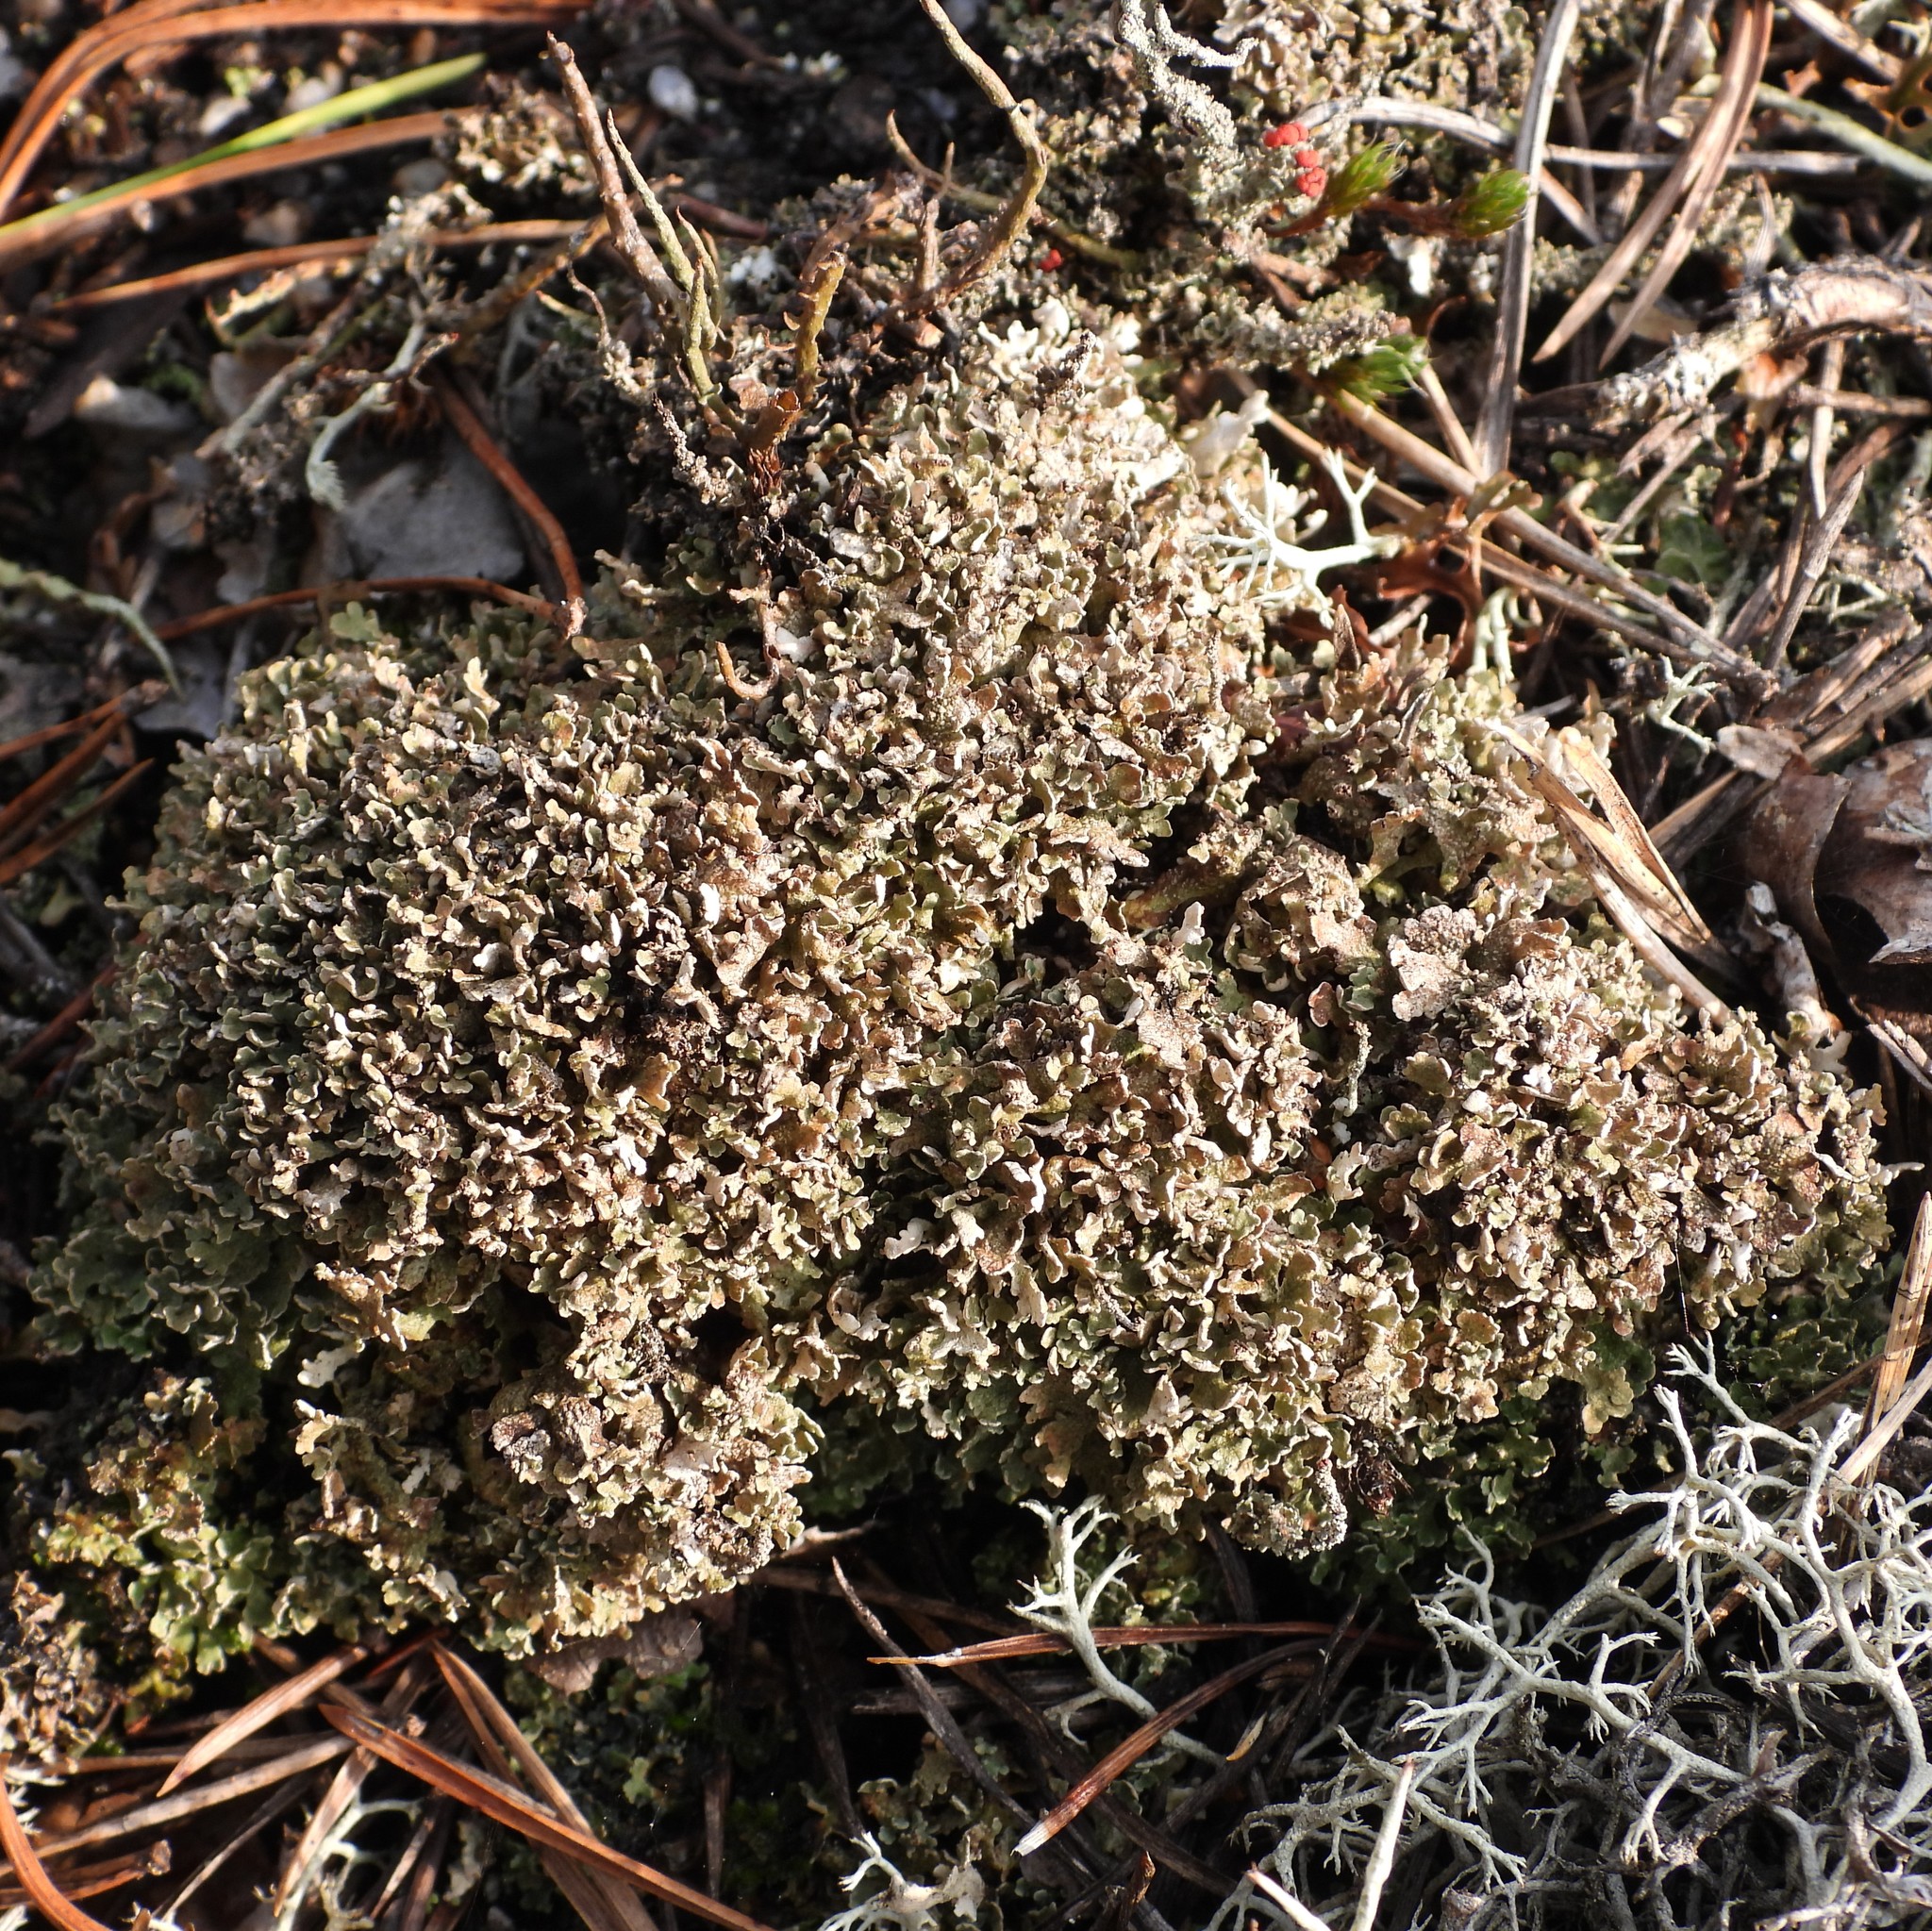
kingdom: Fungi
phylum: Ascomycota
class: Lecanoromycetes
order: Lecanorales
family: Cladoniaceae
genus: Cladonia
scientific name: Cladonia strepsilis
